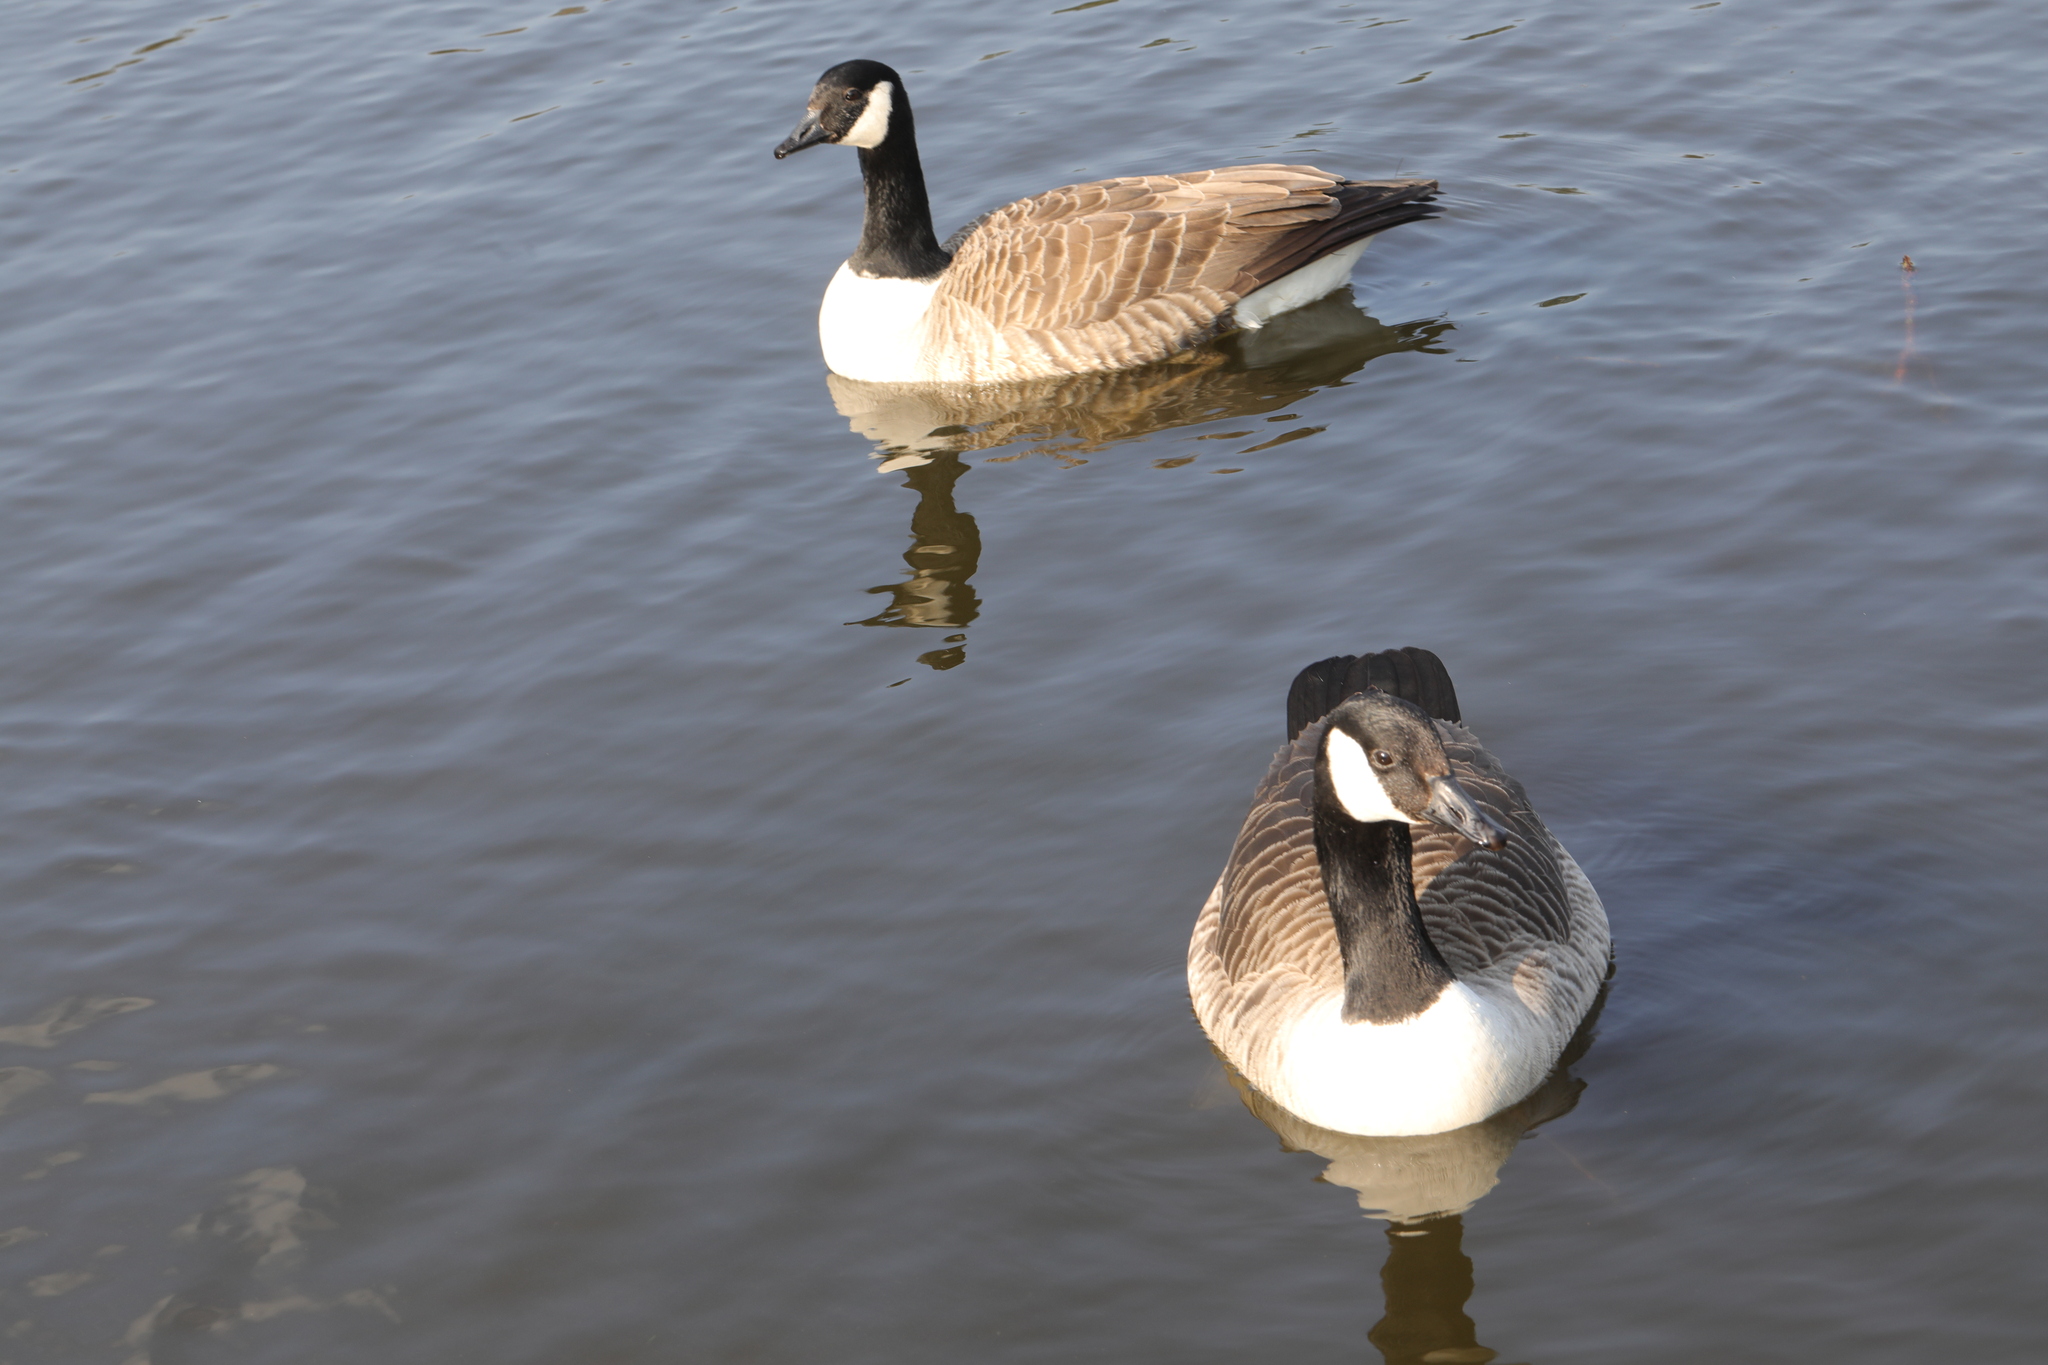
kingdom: Animalia
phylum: Chordata
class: Aves
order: Anseriformes
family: Anatidae
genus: Branta
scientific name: Branta canadensis
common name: Canada goose
